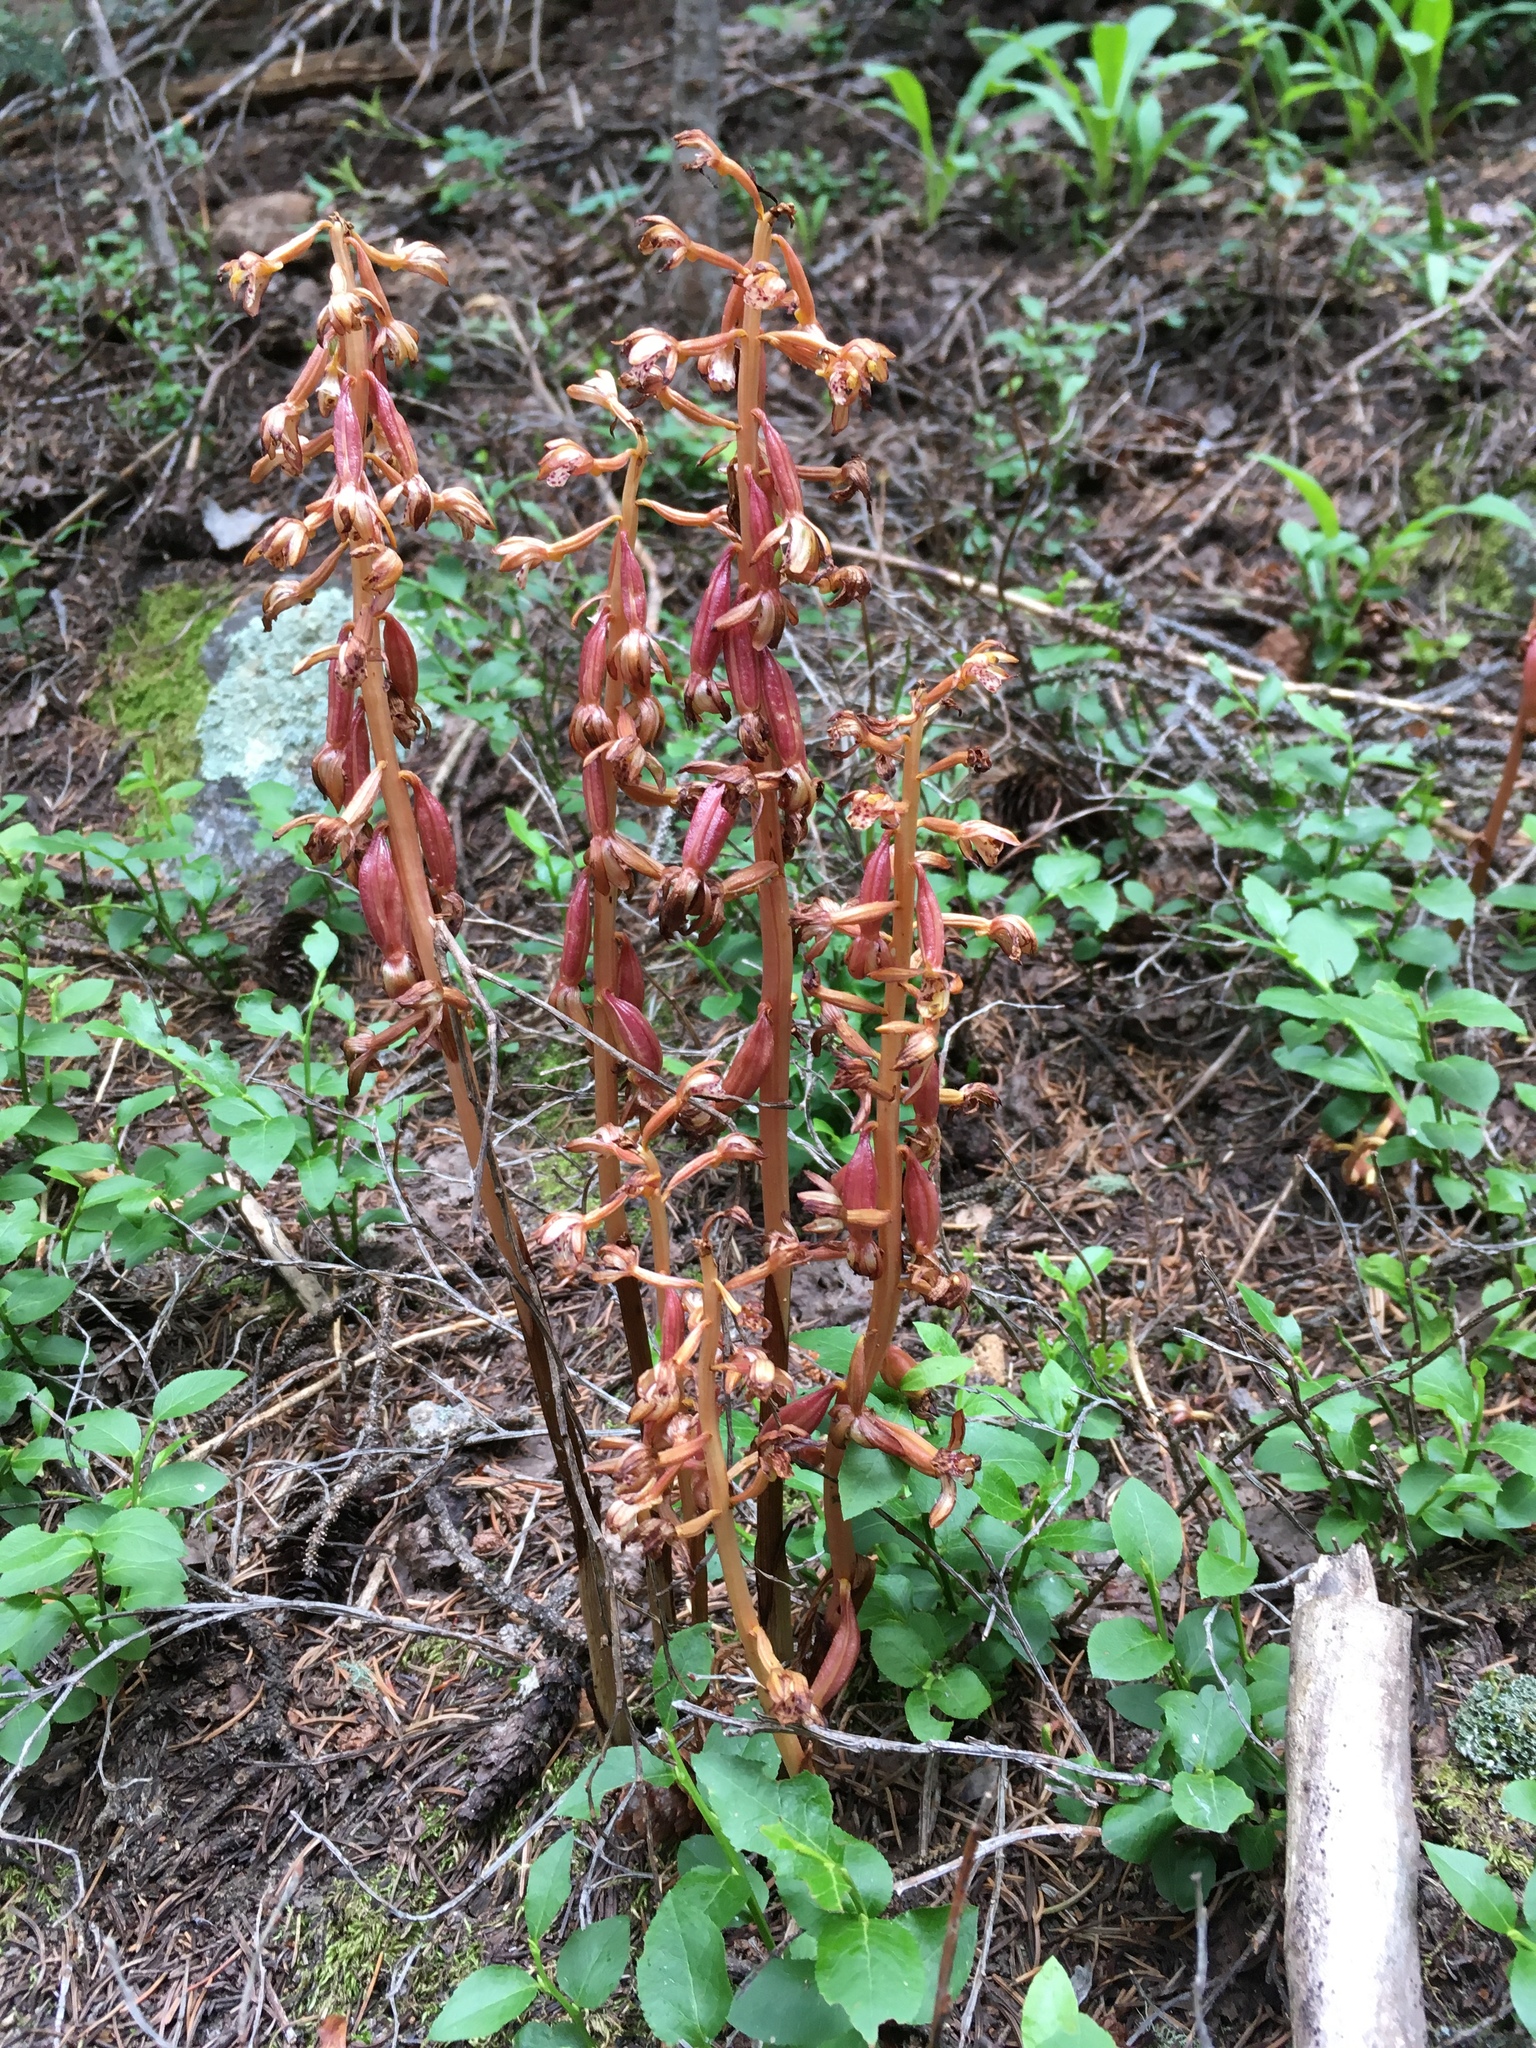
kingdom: Plantae
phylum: Tracheophyta
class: Liliopsida
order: Asparagales
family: Orchidaceae
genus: Corallorhiza
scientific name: Corallorhiza maculata
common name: Spotted coralroot
